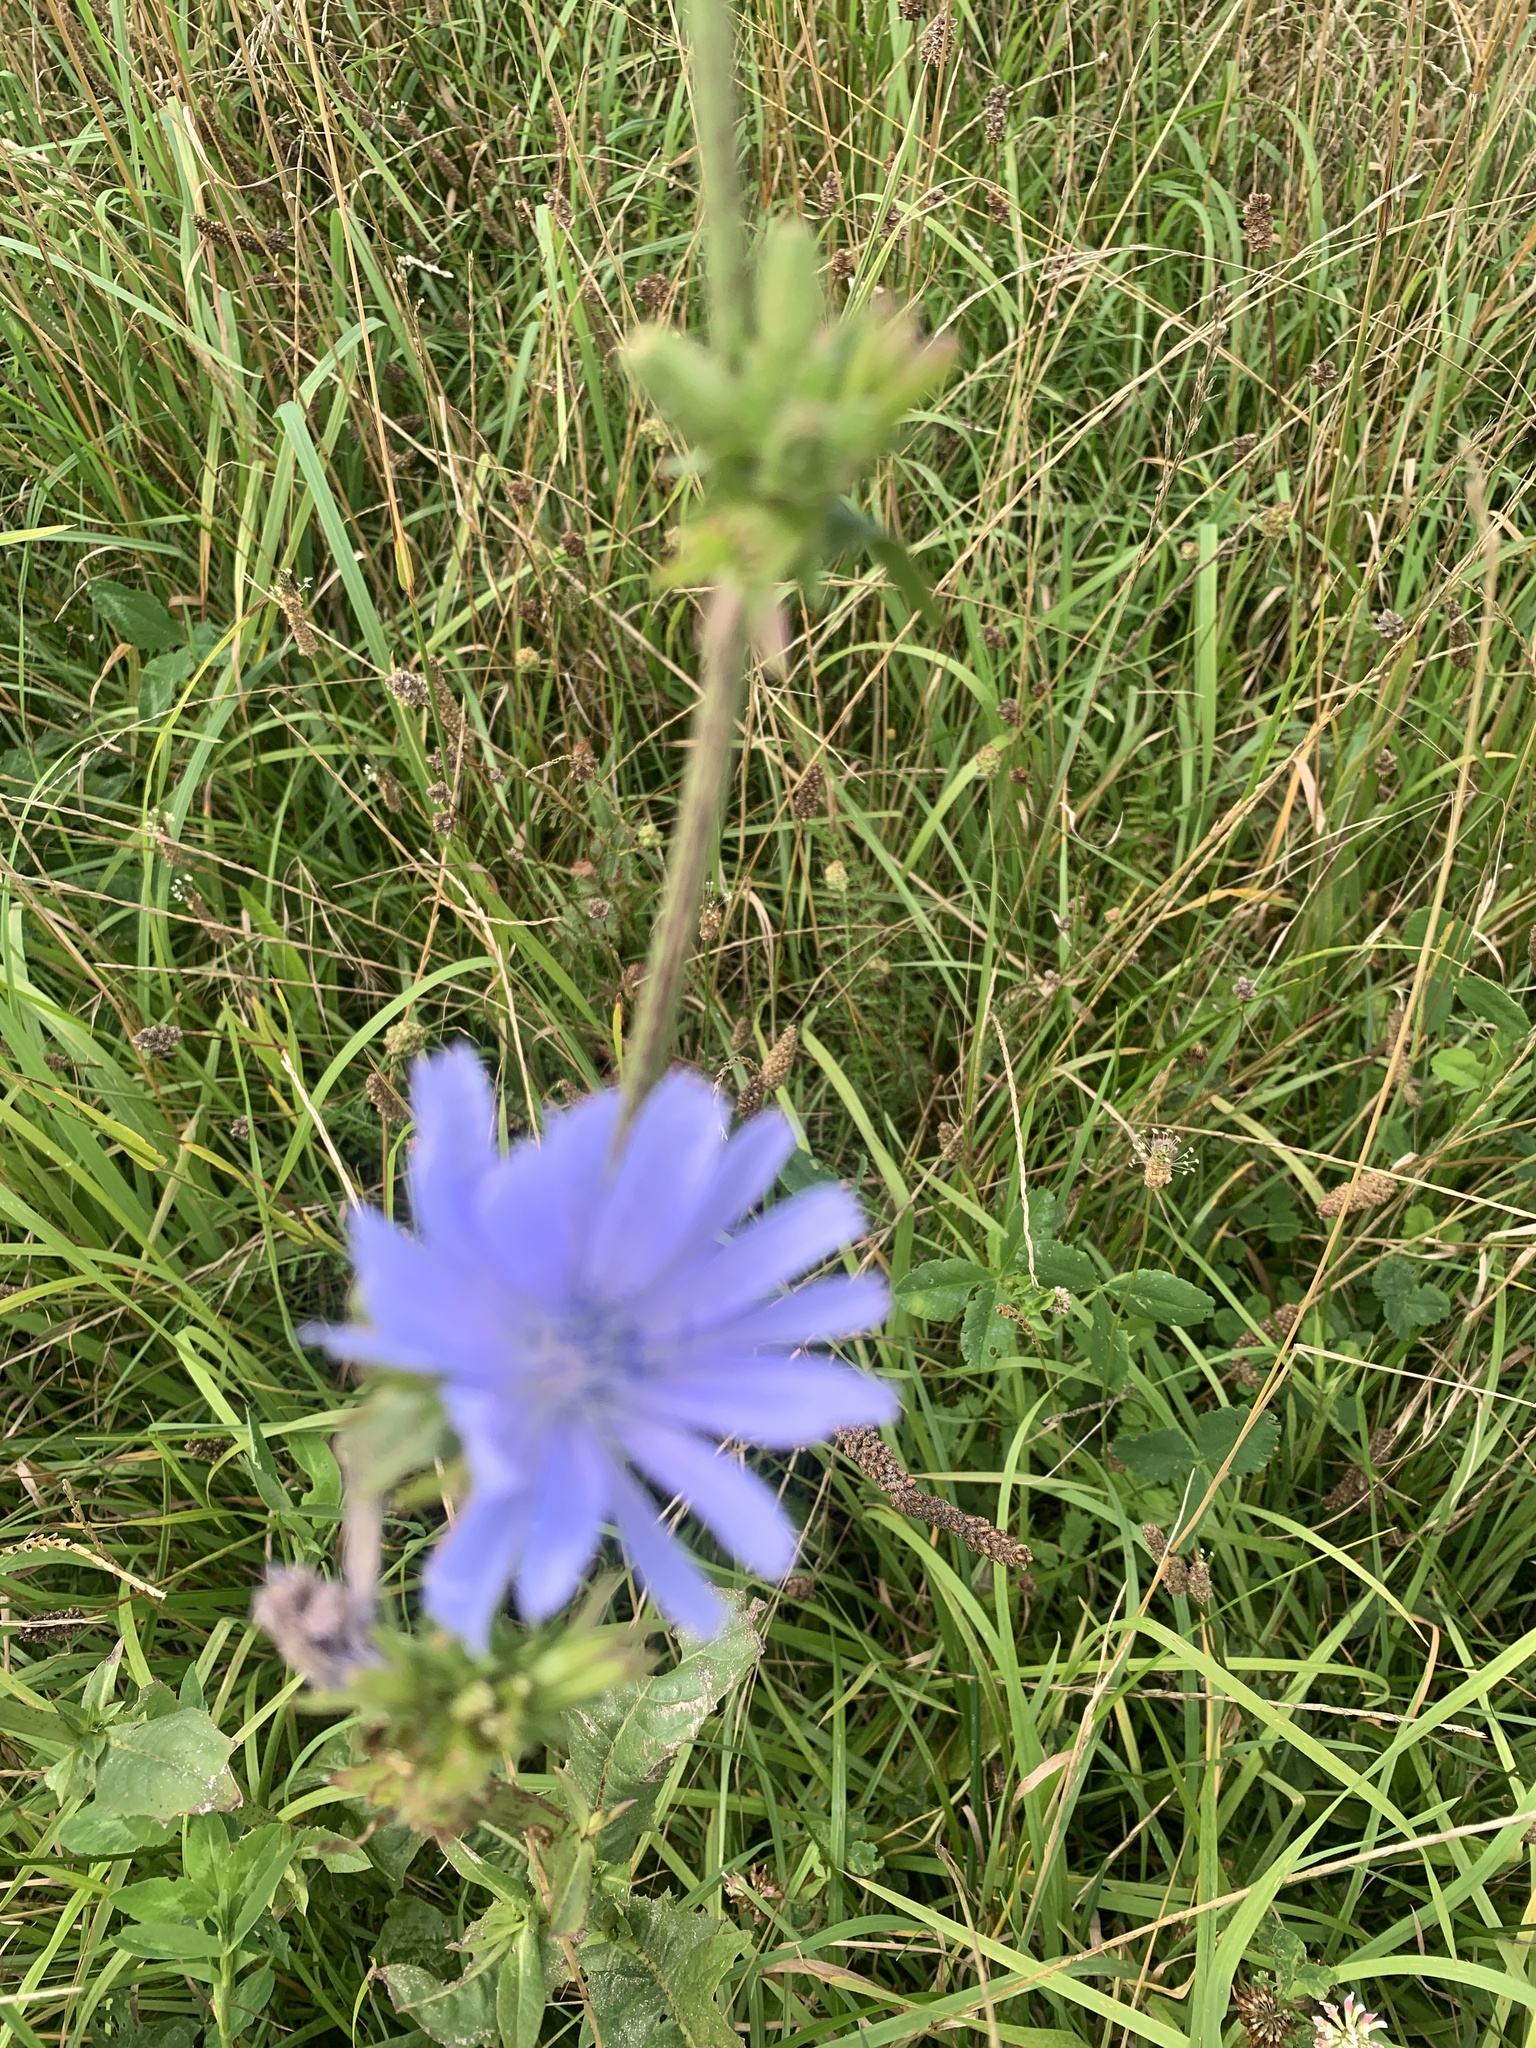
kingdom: Plantae
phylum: Tracheophyta
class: Magnoliopsida
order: Asterales
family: Asteraceae
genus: Cichorium
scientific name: Cichorium intybus
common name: Chicory
